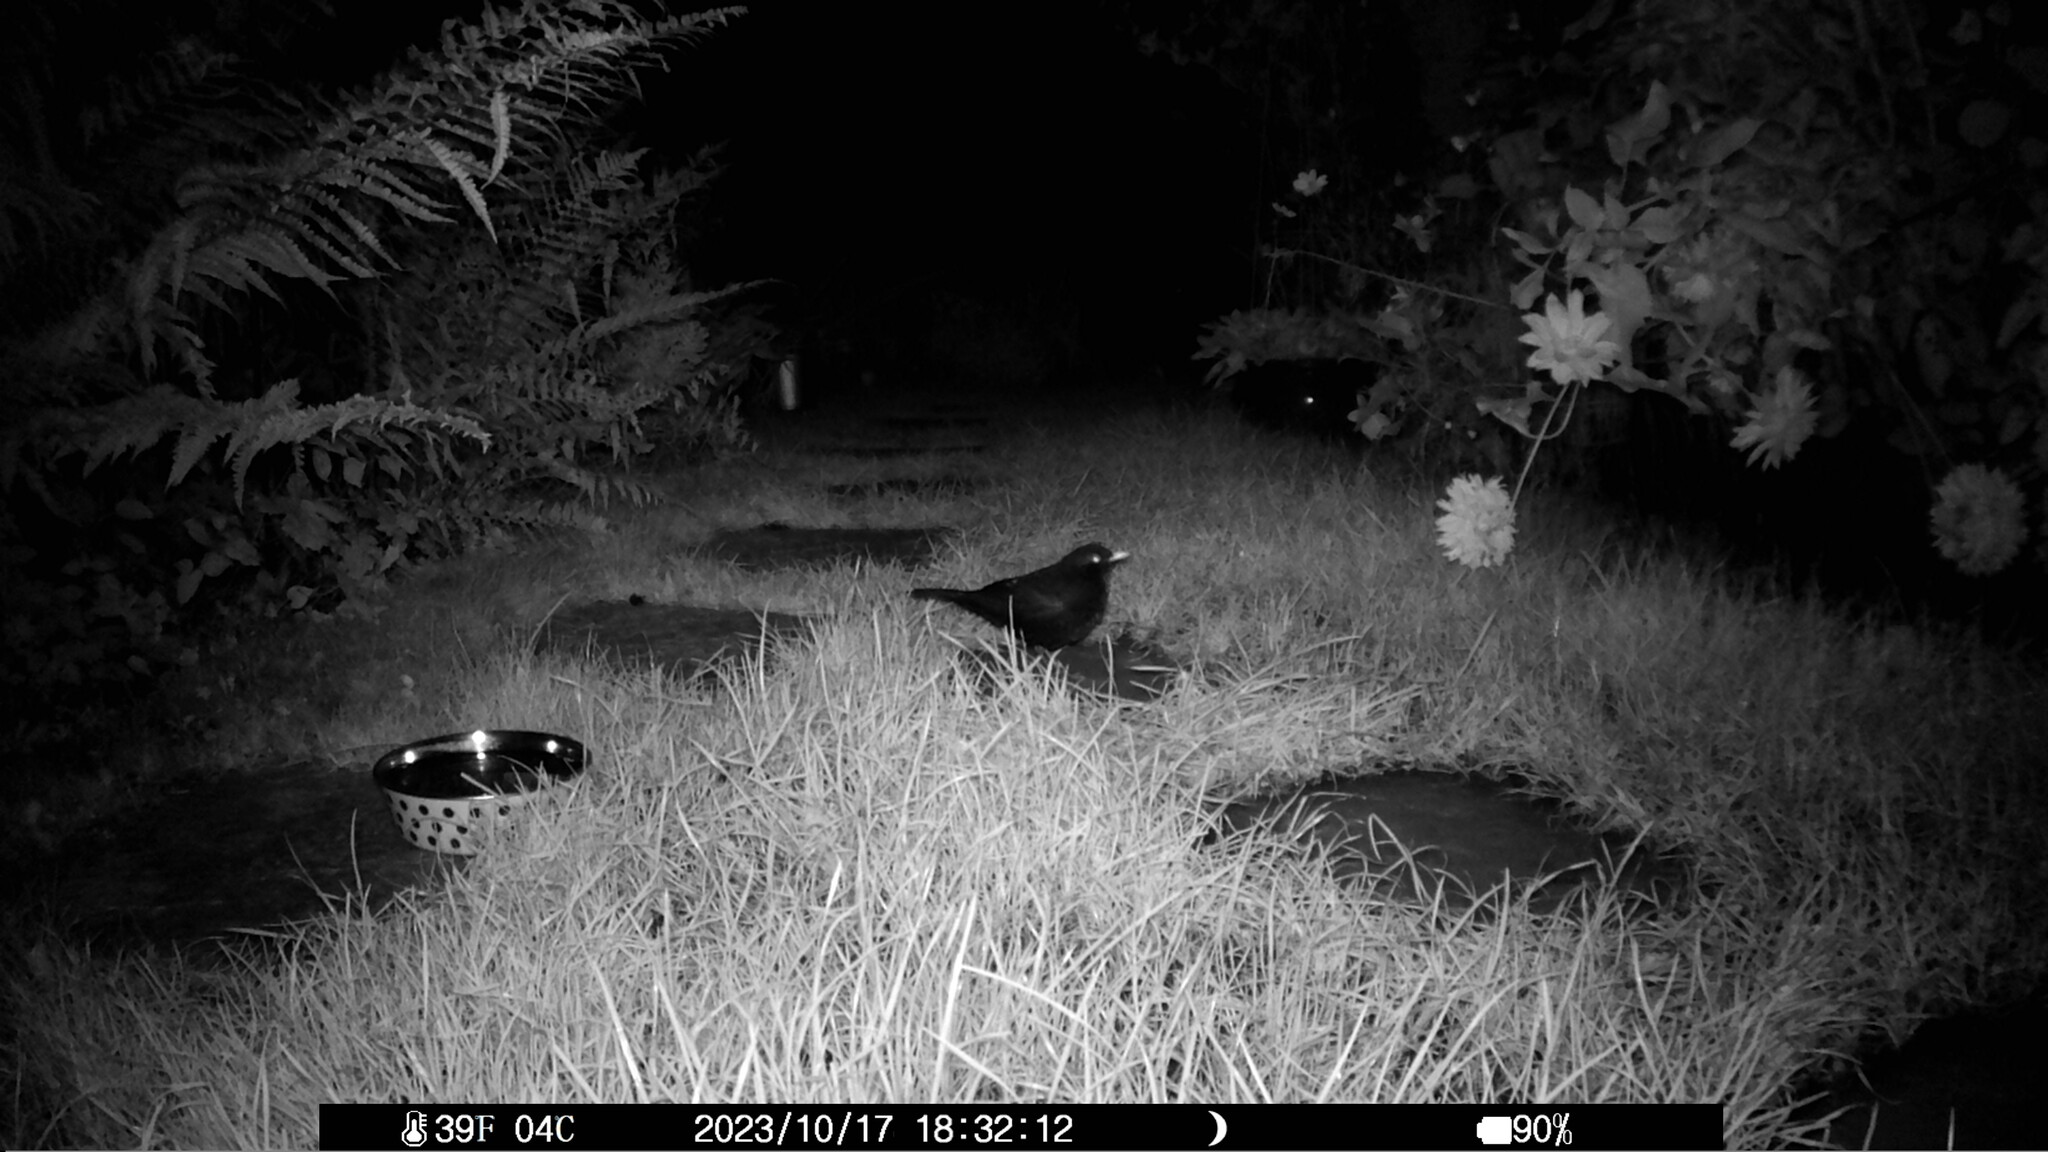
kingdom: Animalia
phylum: Chordata
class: Aves
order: Passeriformes
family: Turdidae
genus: Turdus
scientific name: Turdus merula
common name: Common blackbird
